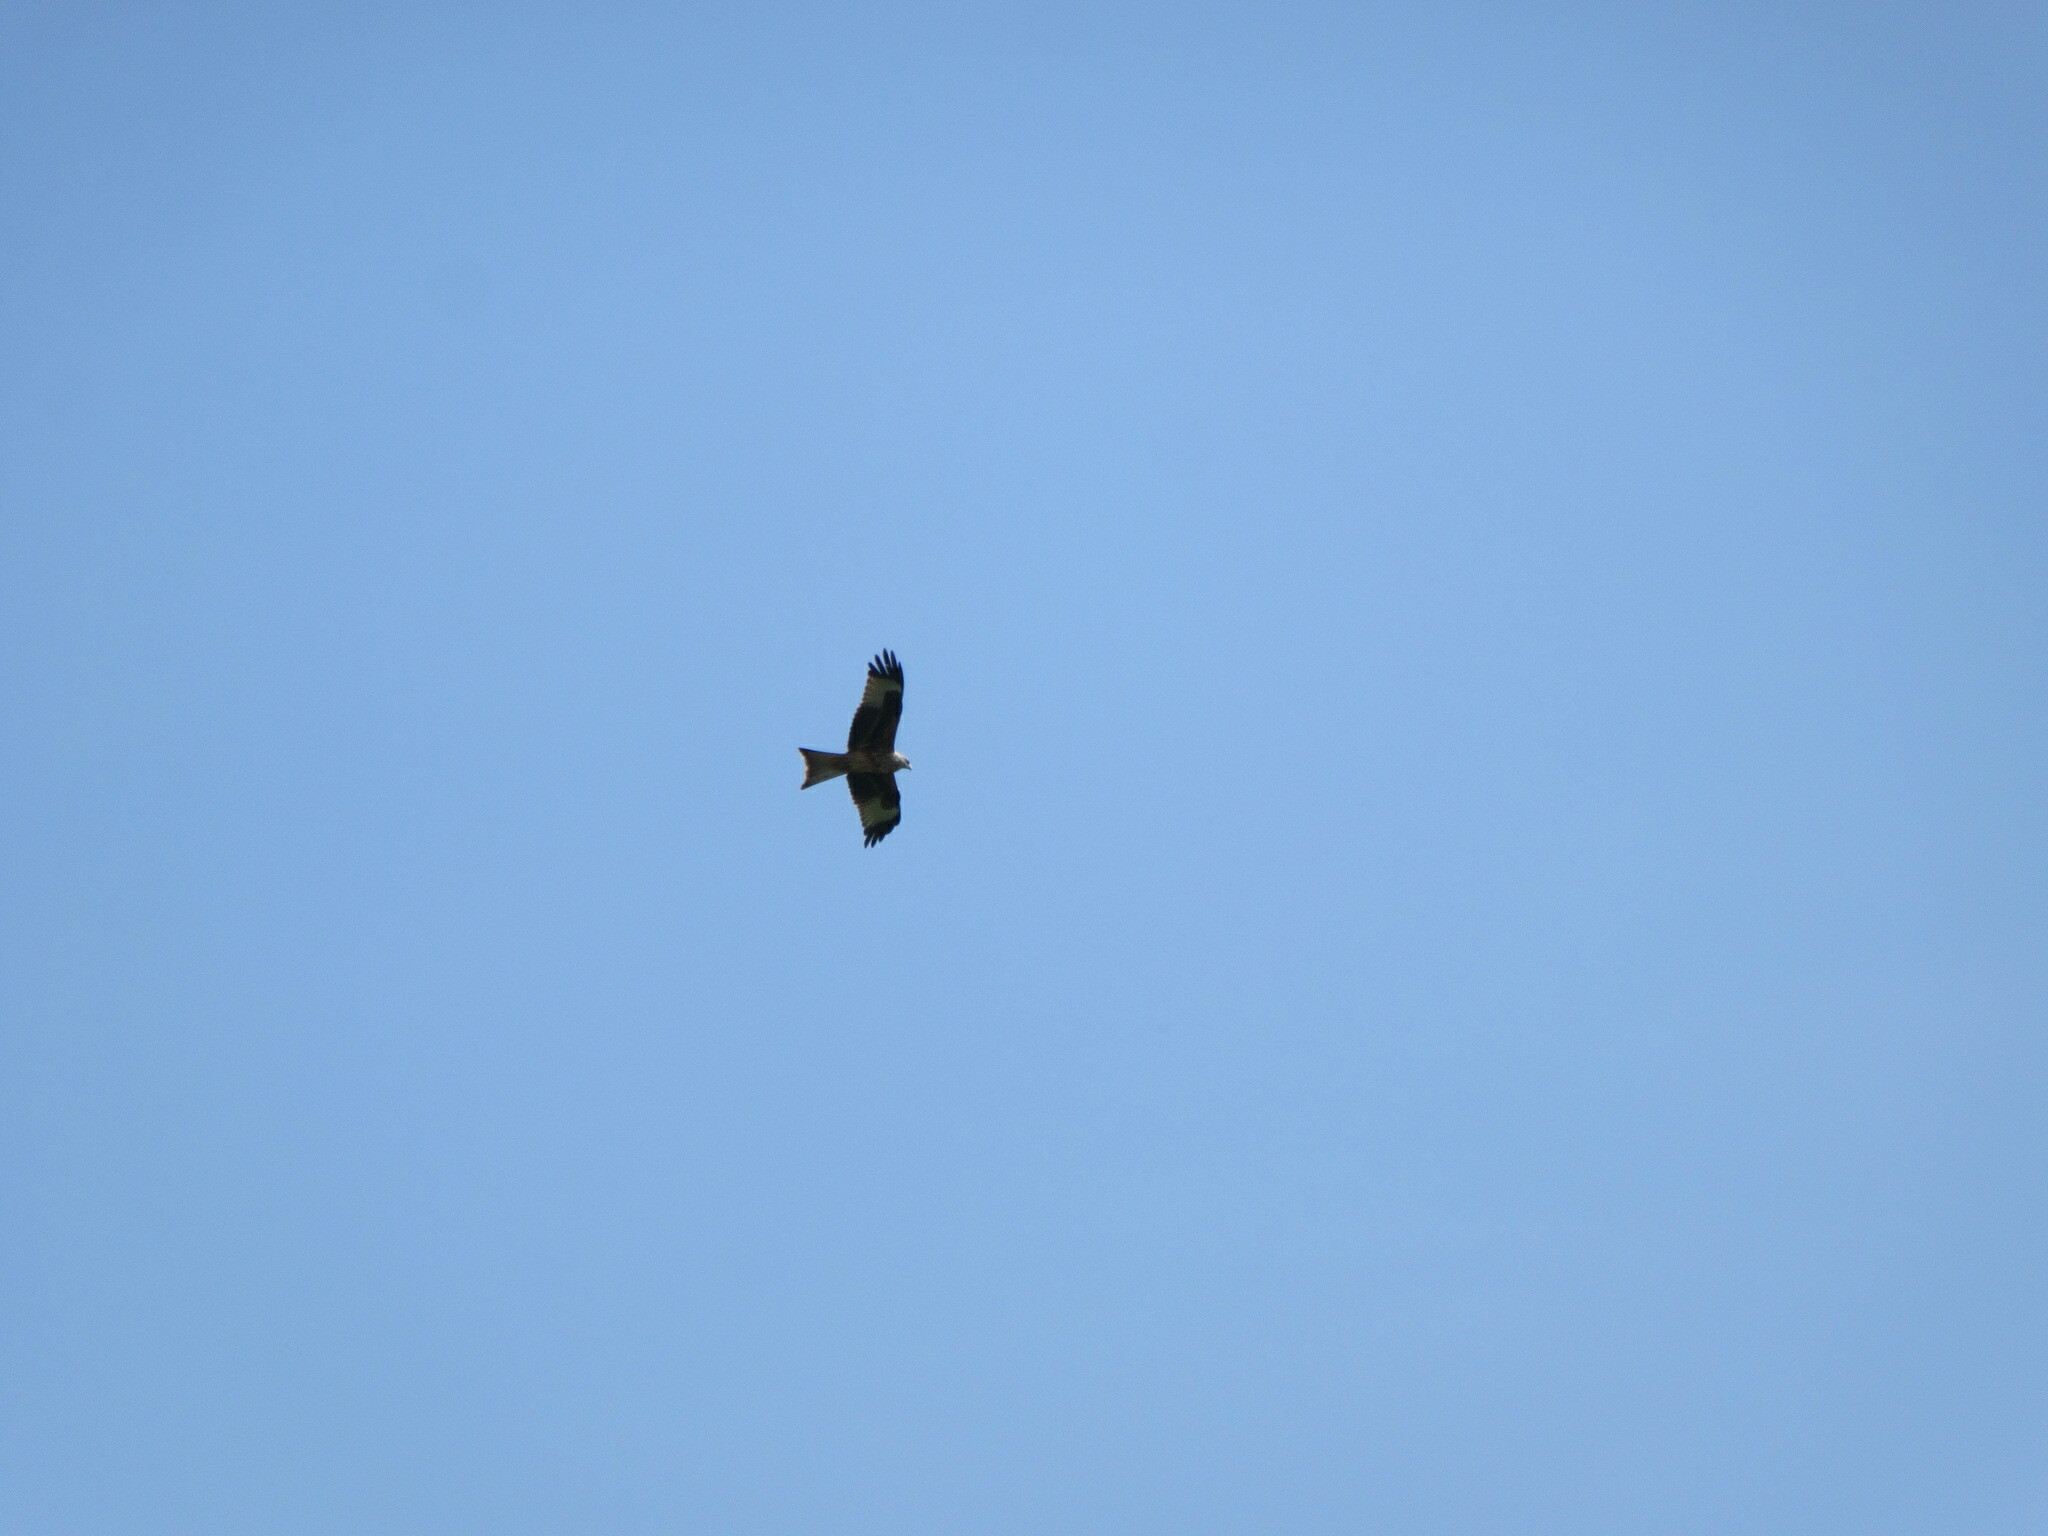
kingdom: Animalia
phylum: Chordata
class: Aves
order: Accipitriformes
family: Accipitridae
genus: Milvus
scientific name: Milvus milvus
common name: Red kite
